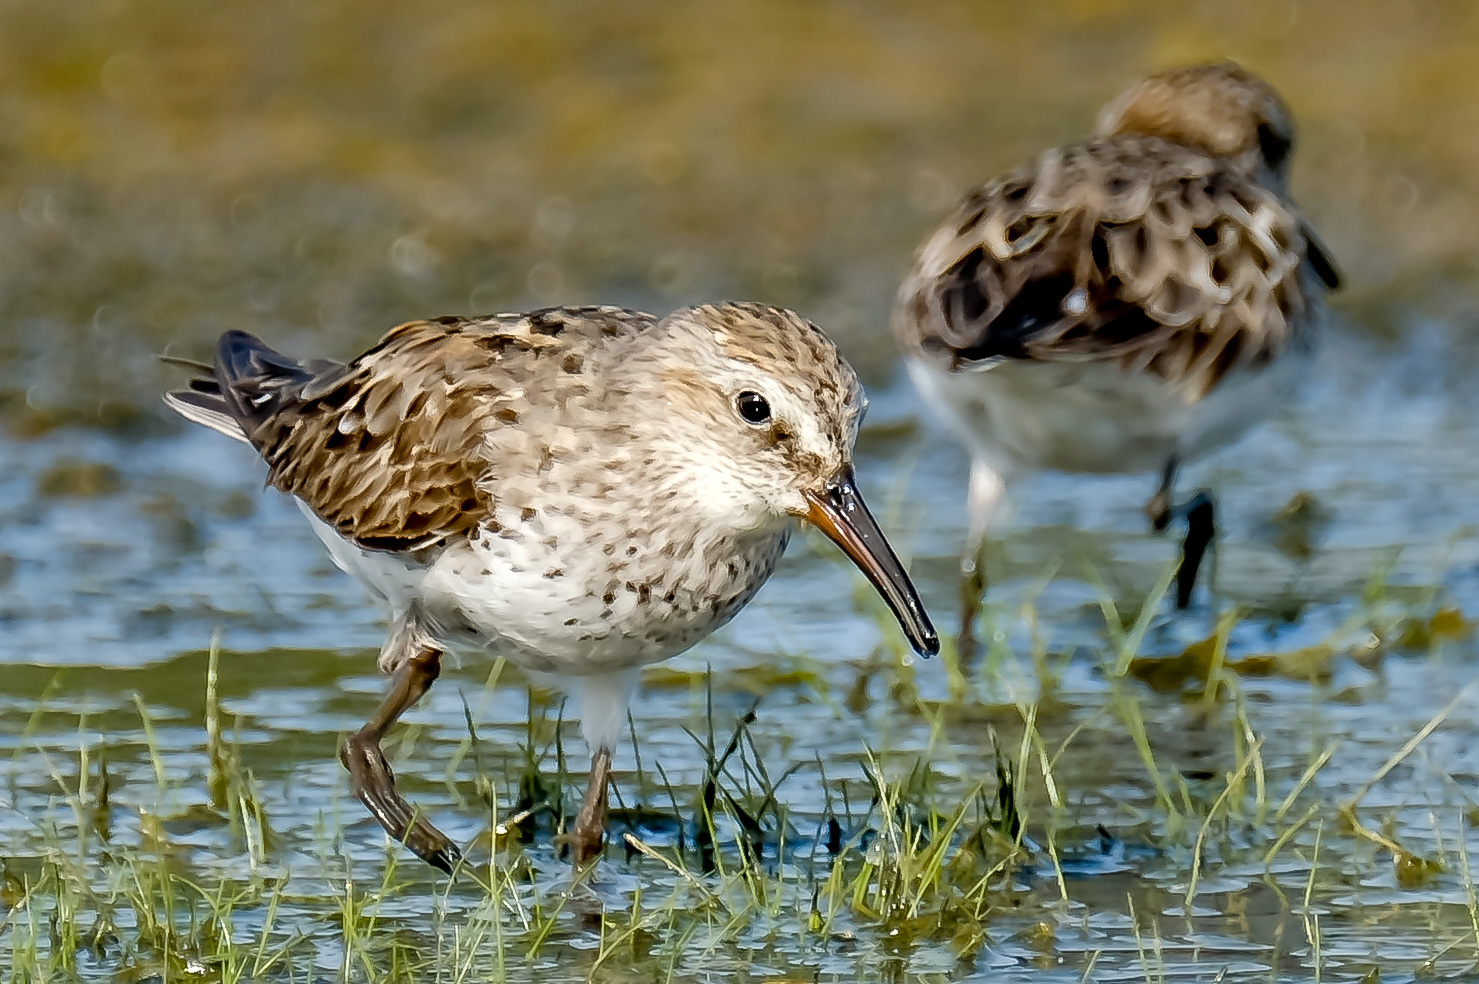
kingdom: Animalia
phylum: Chordata
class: Aves
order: Charadriiformes
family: Scolopacidae
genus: Calidris
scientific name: Calidris fuscicollis
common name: White-rumped sandpiper
